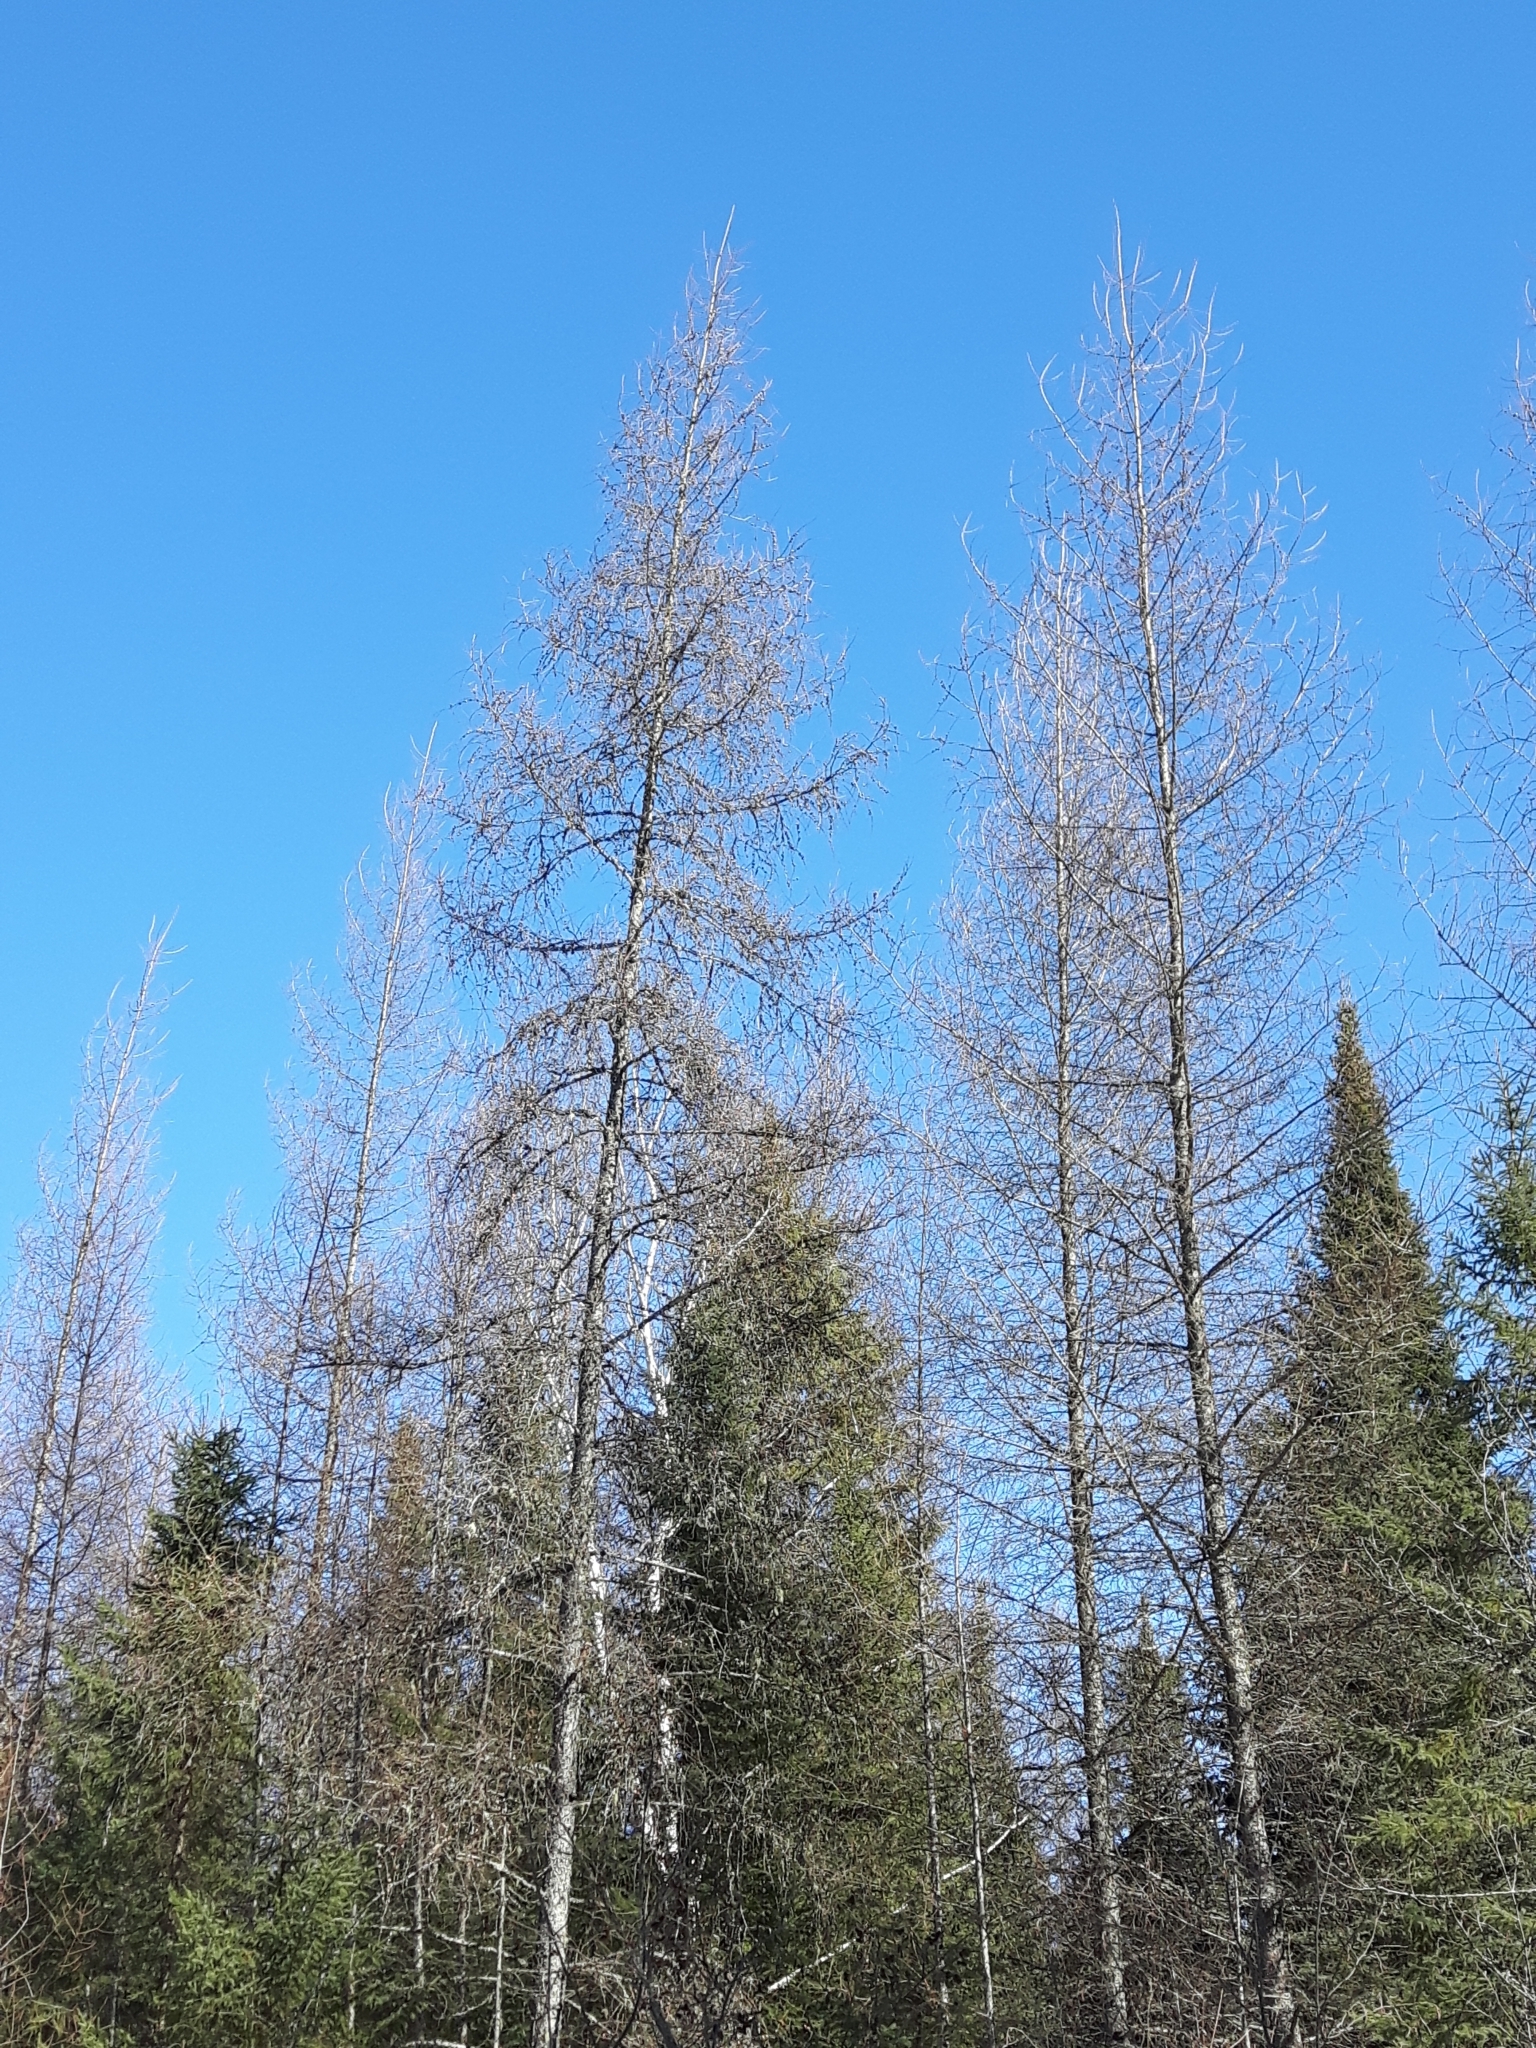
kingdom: Plantae
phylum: Tracheophyta
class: Pinopsida
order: Pinales
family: Pinaceae
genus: Larix
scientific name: Larix laricina
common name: American larch
